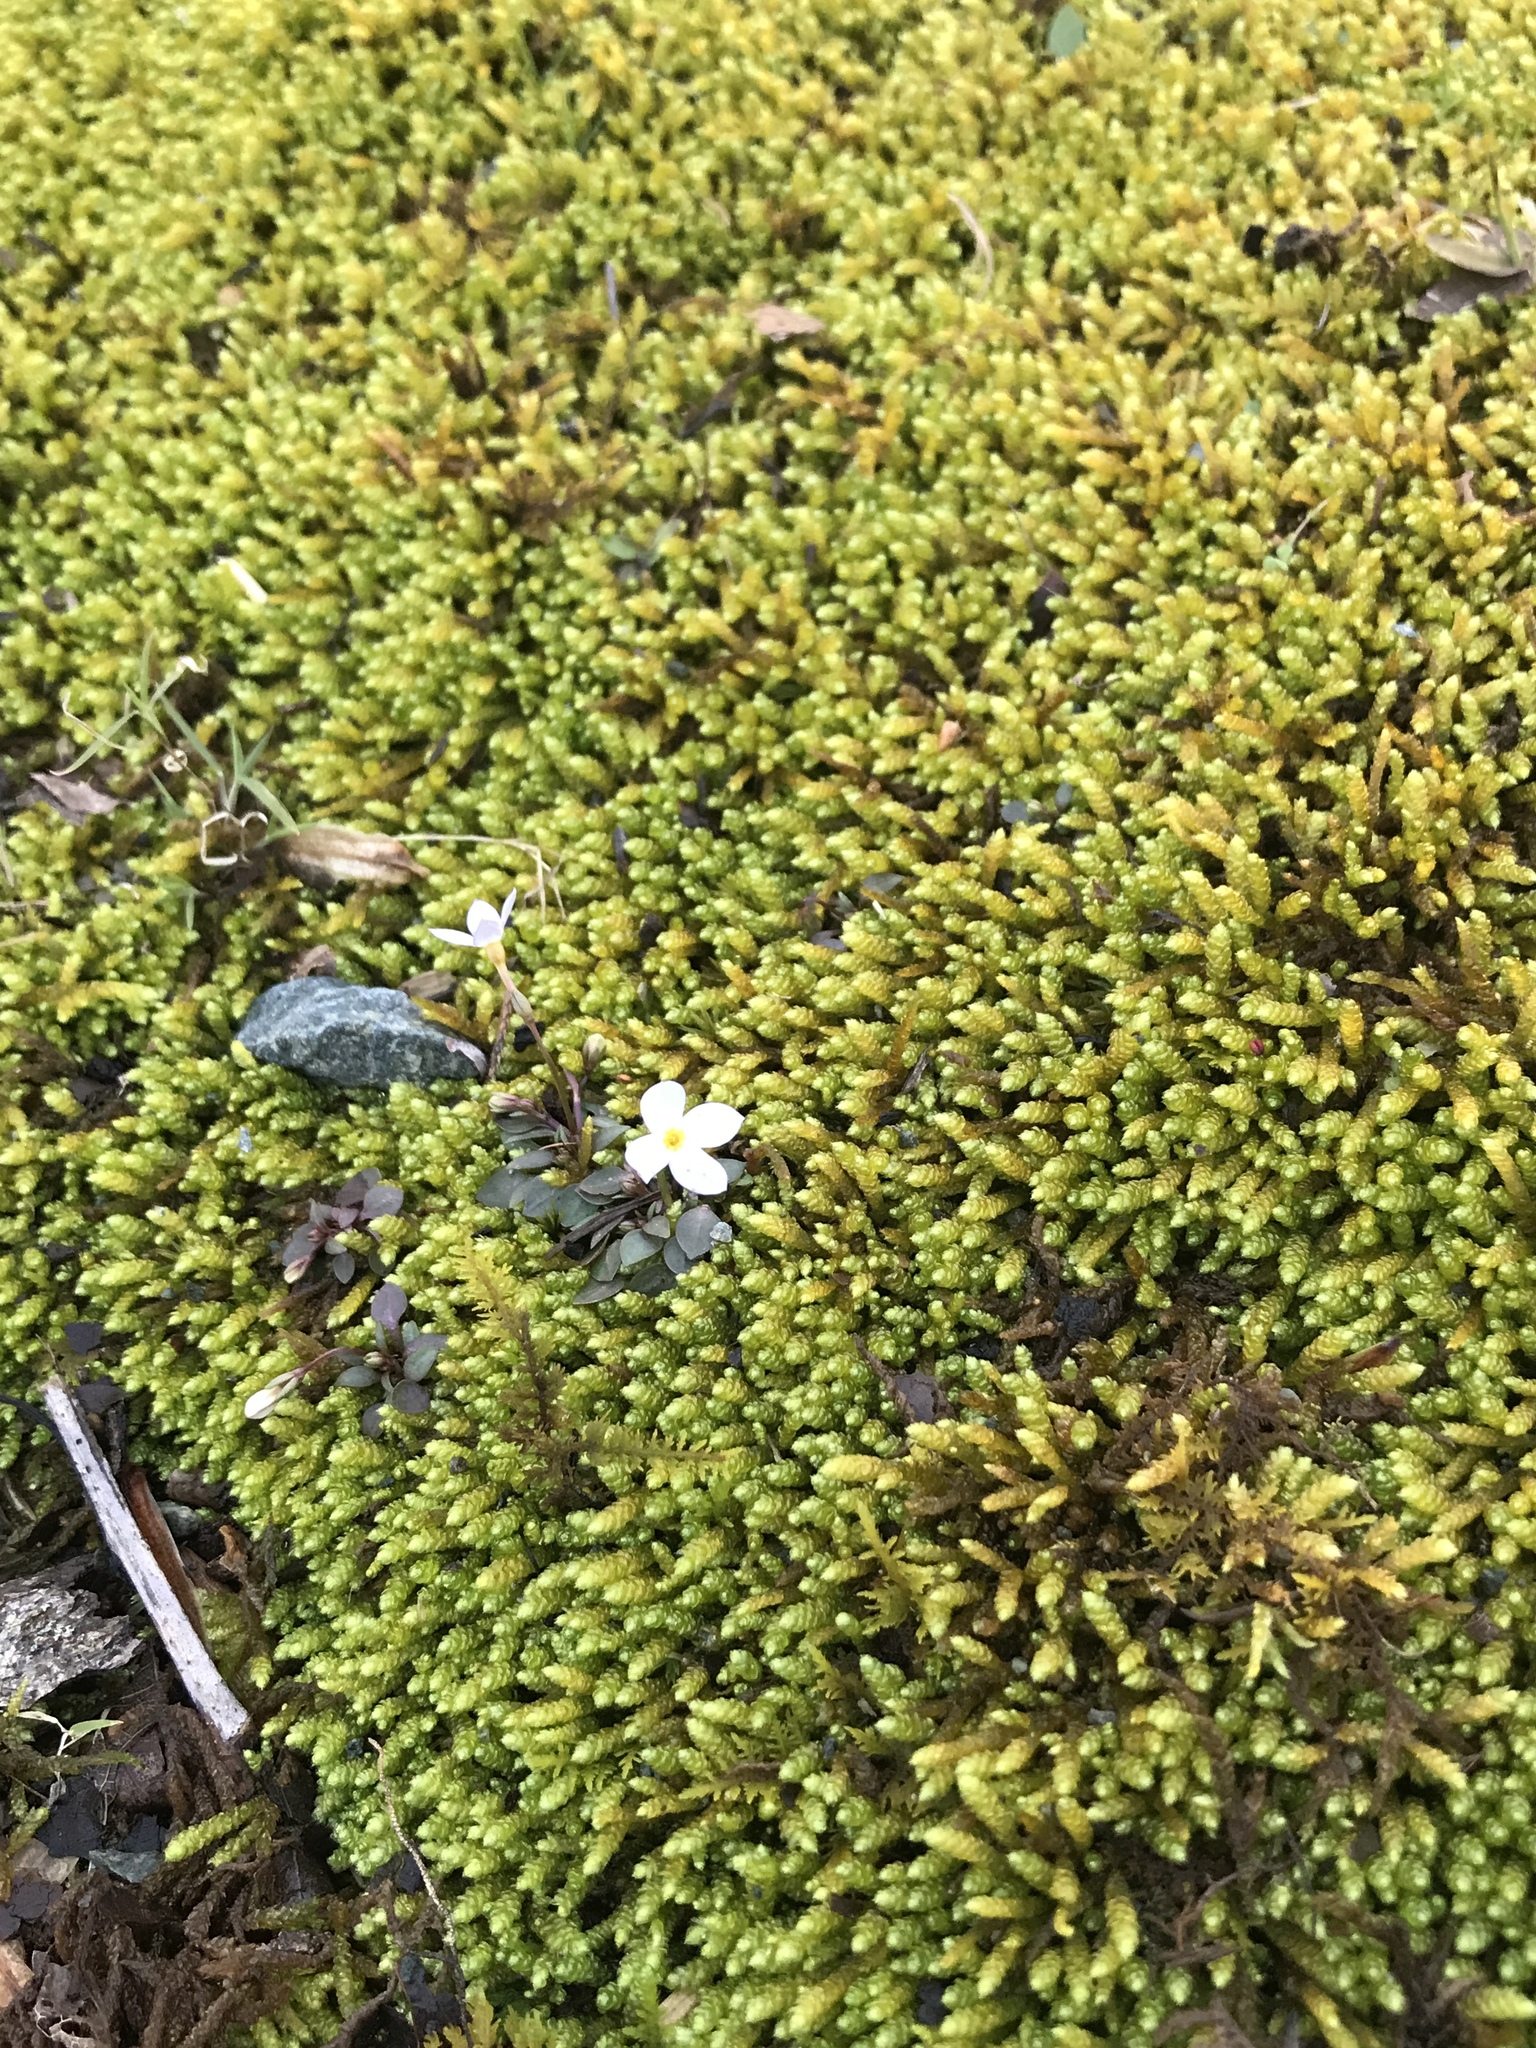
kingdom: Plantae
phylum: Tracheophyta
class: Magnoliopsida
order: Gentianales
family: Rubiaceae
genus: Houstonia
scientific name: Houstonia caerulea
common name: Bluets
